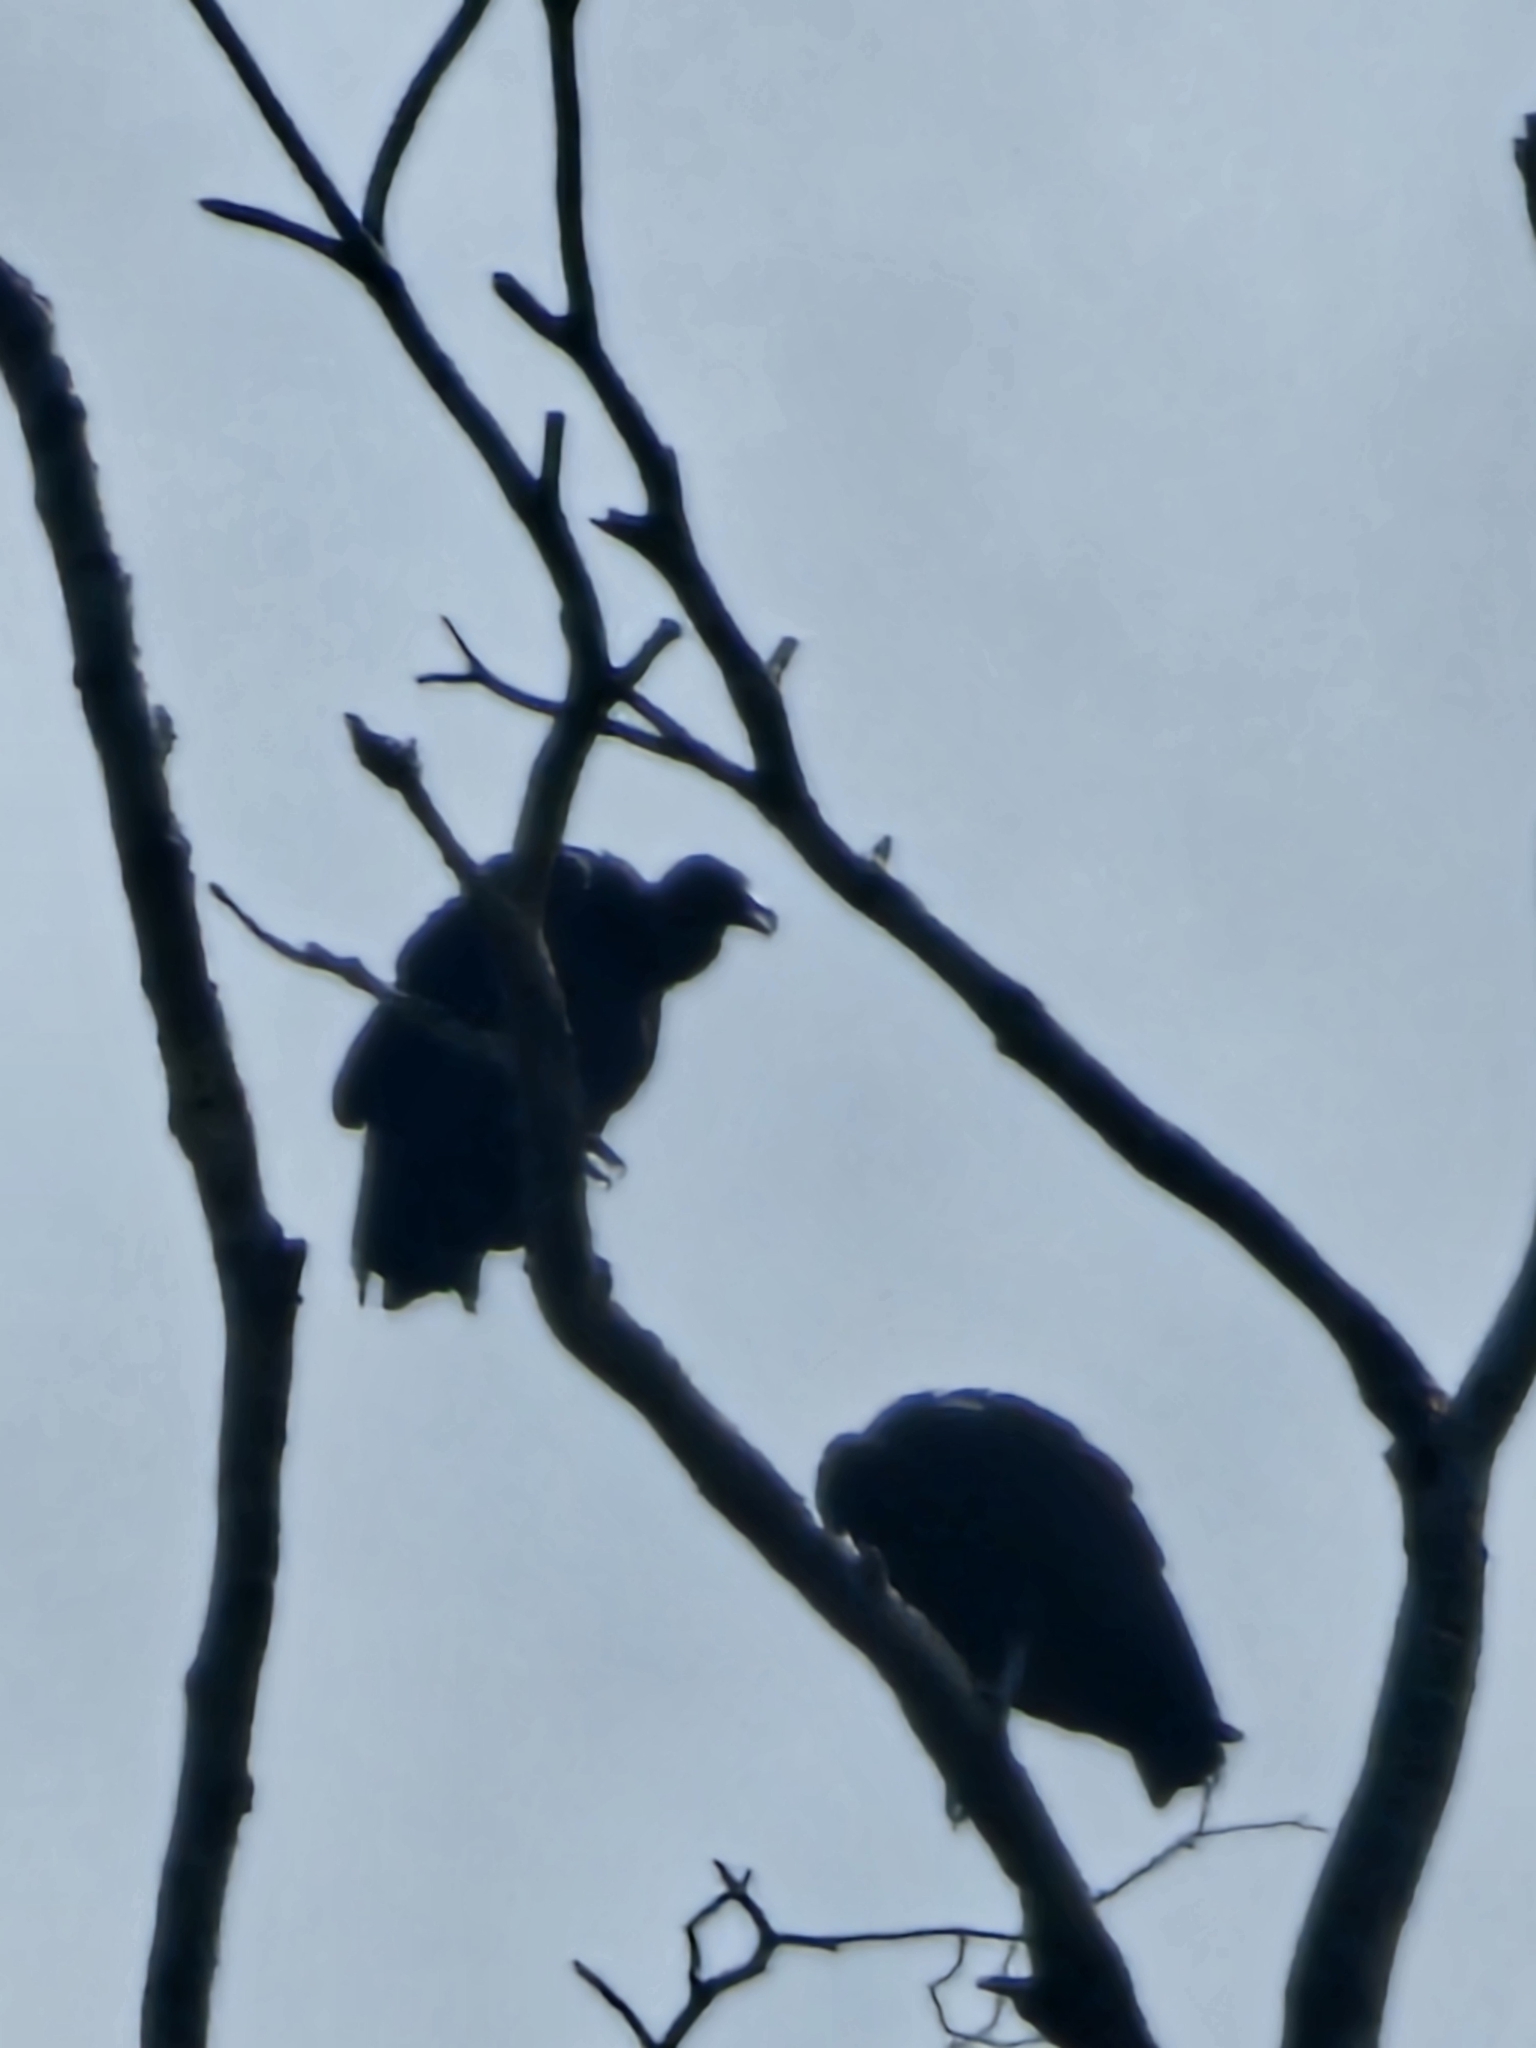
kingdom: Animalia
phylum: Chordata
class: Aves
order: Accipitriformes
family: Cathartidae
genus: Coragyps
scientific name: Coragyps atratus
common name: Black vulture
